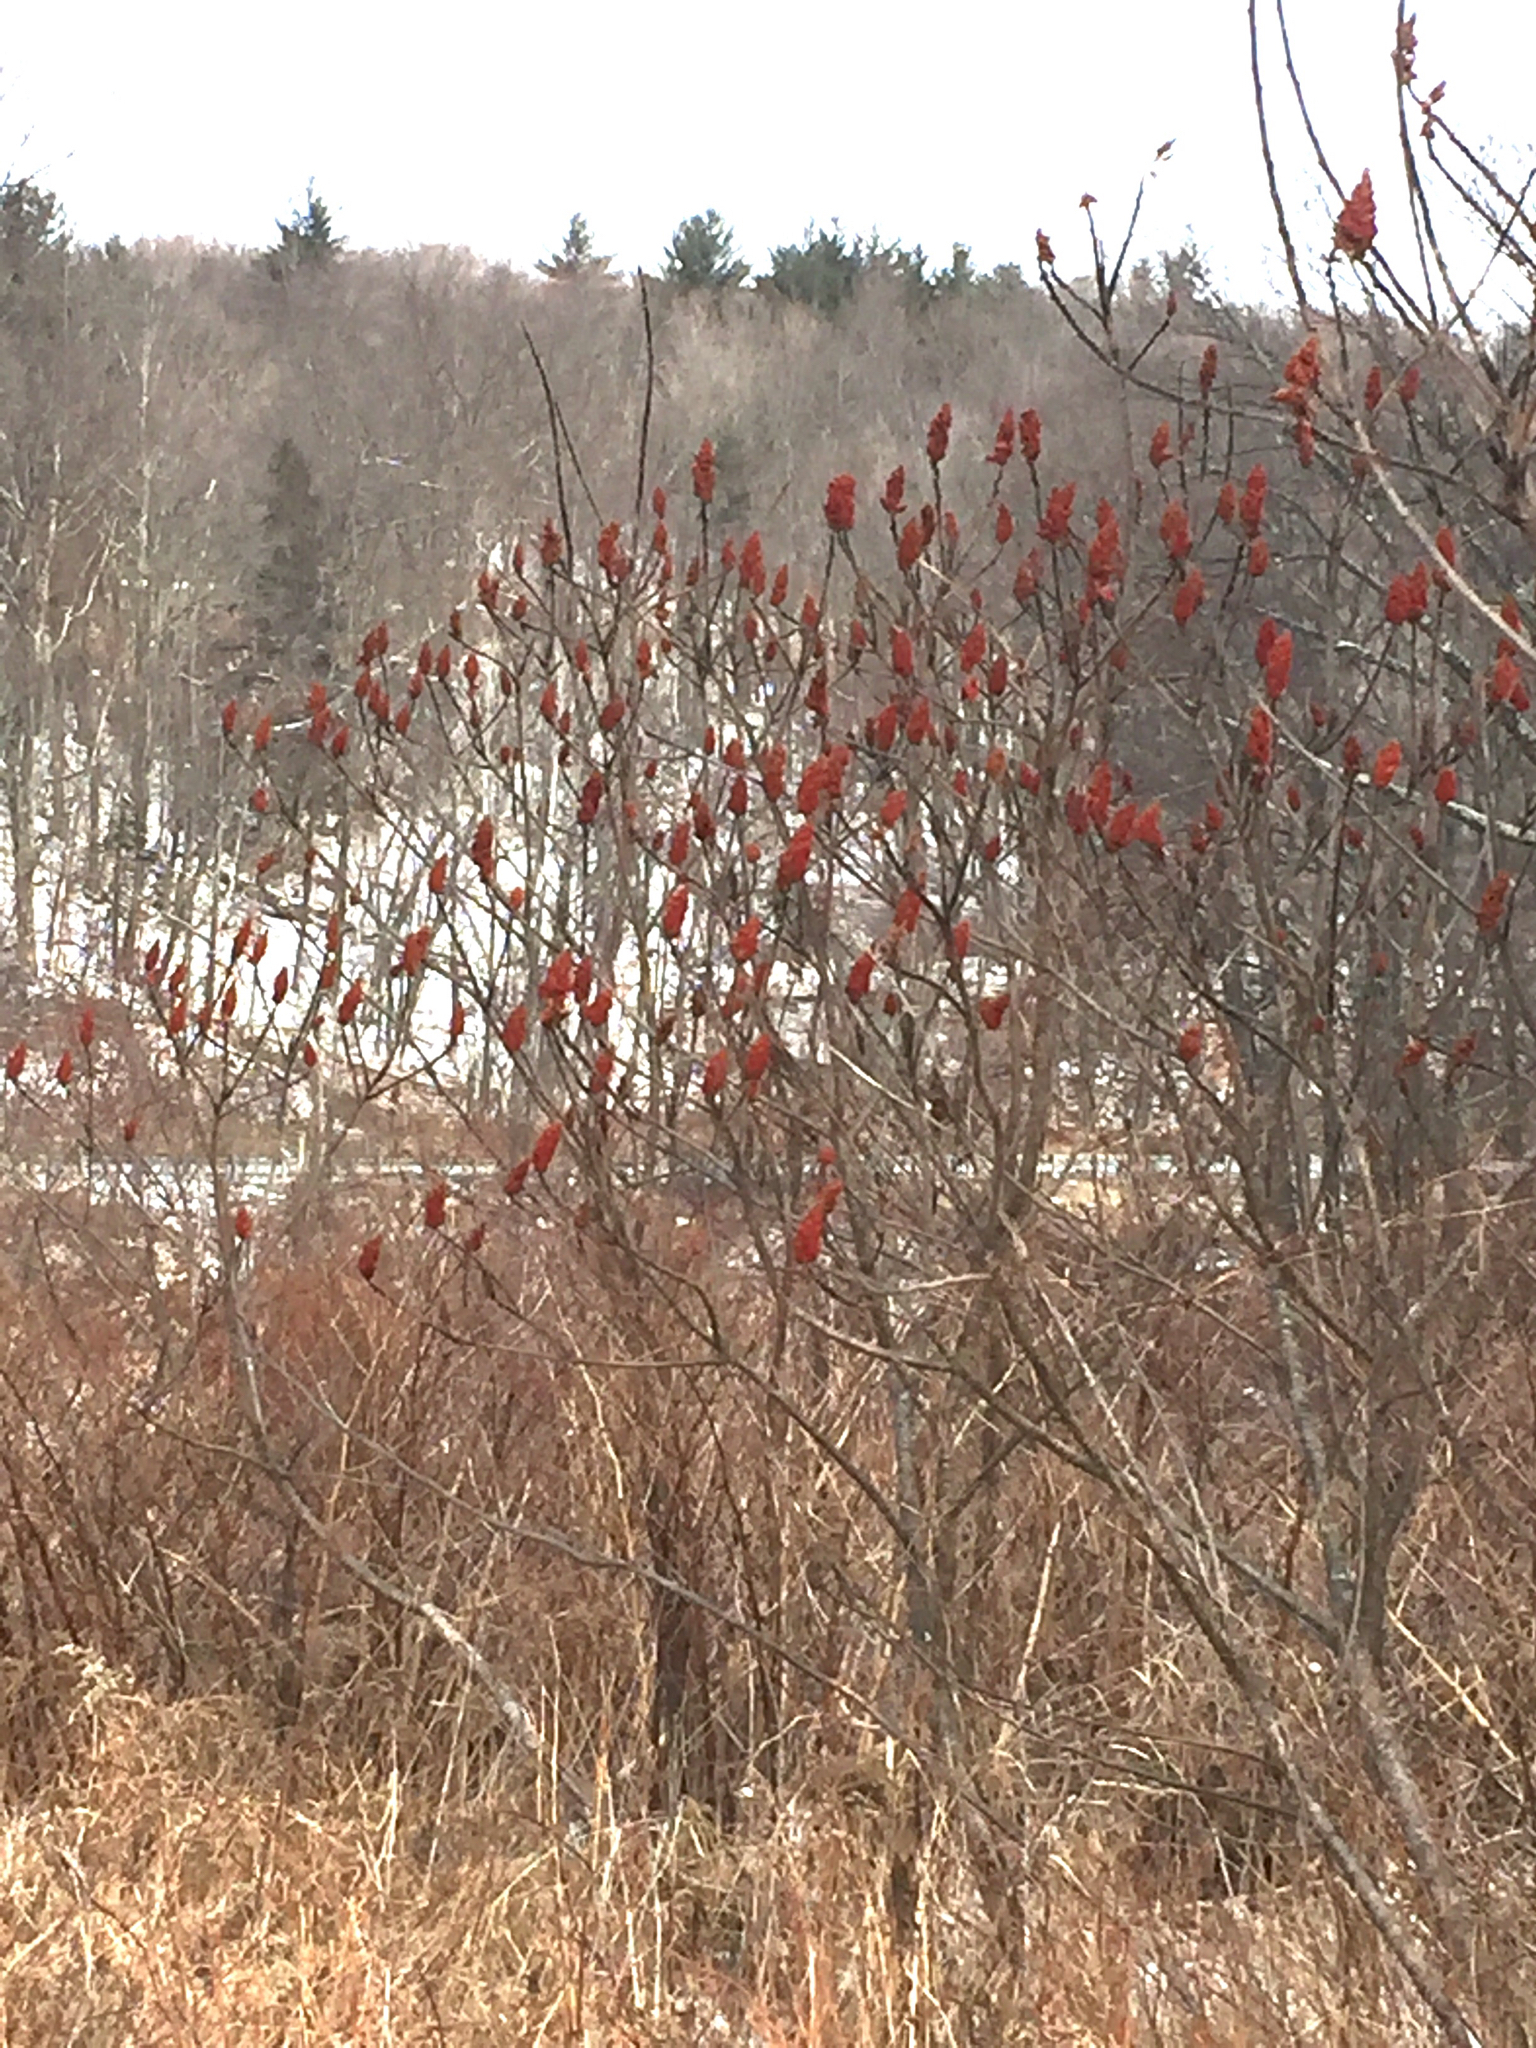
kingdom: Plantae
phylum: Tracheophyta
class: Magnoliopsida
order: Sapindales
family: Anacardiaceae
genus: Rhus
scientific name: Rhus typhina
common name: Staghorn sumac
